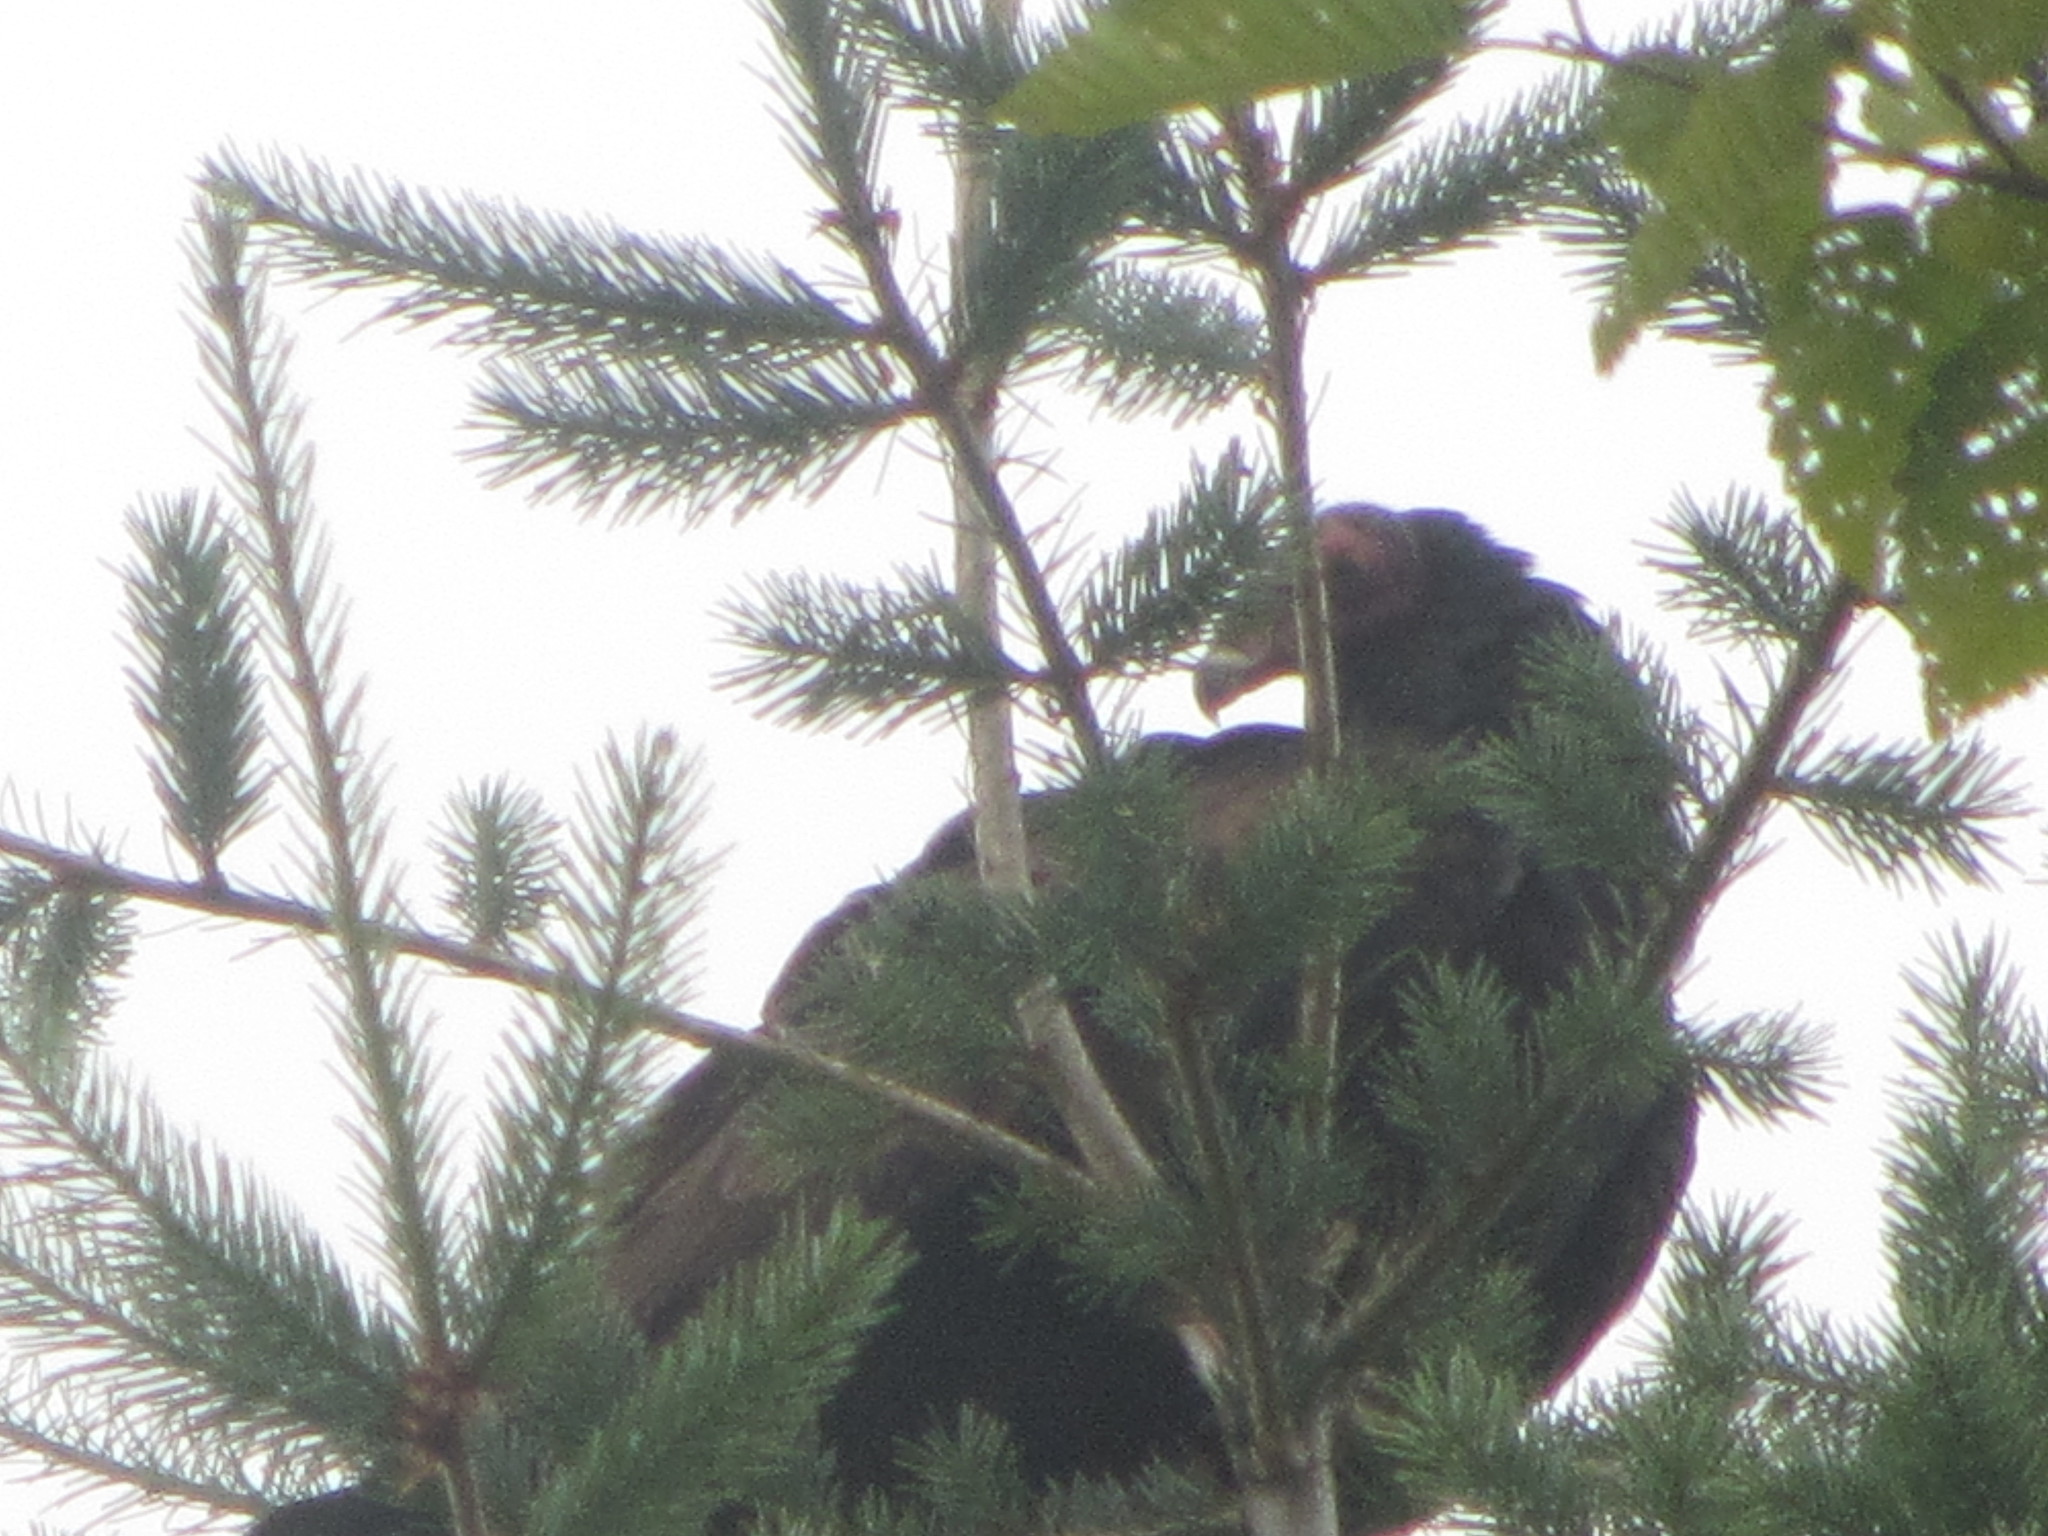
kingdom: Animalia
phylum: Chordata
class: Aves
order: Accipitriformes
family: Cathartidae
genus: Cathartes
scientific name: Cathartes aura
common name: Turkey vulture
